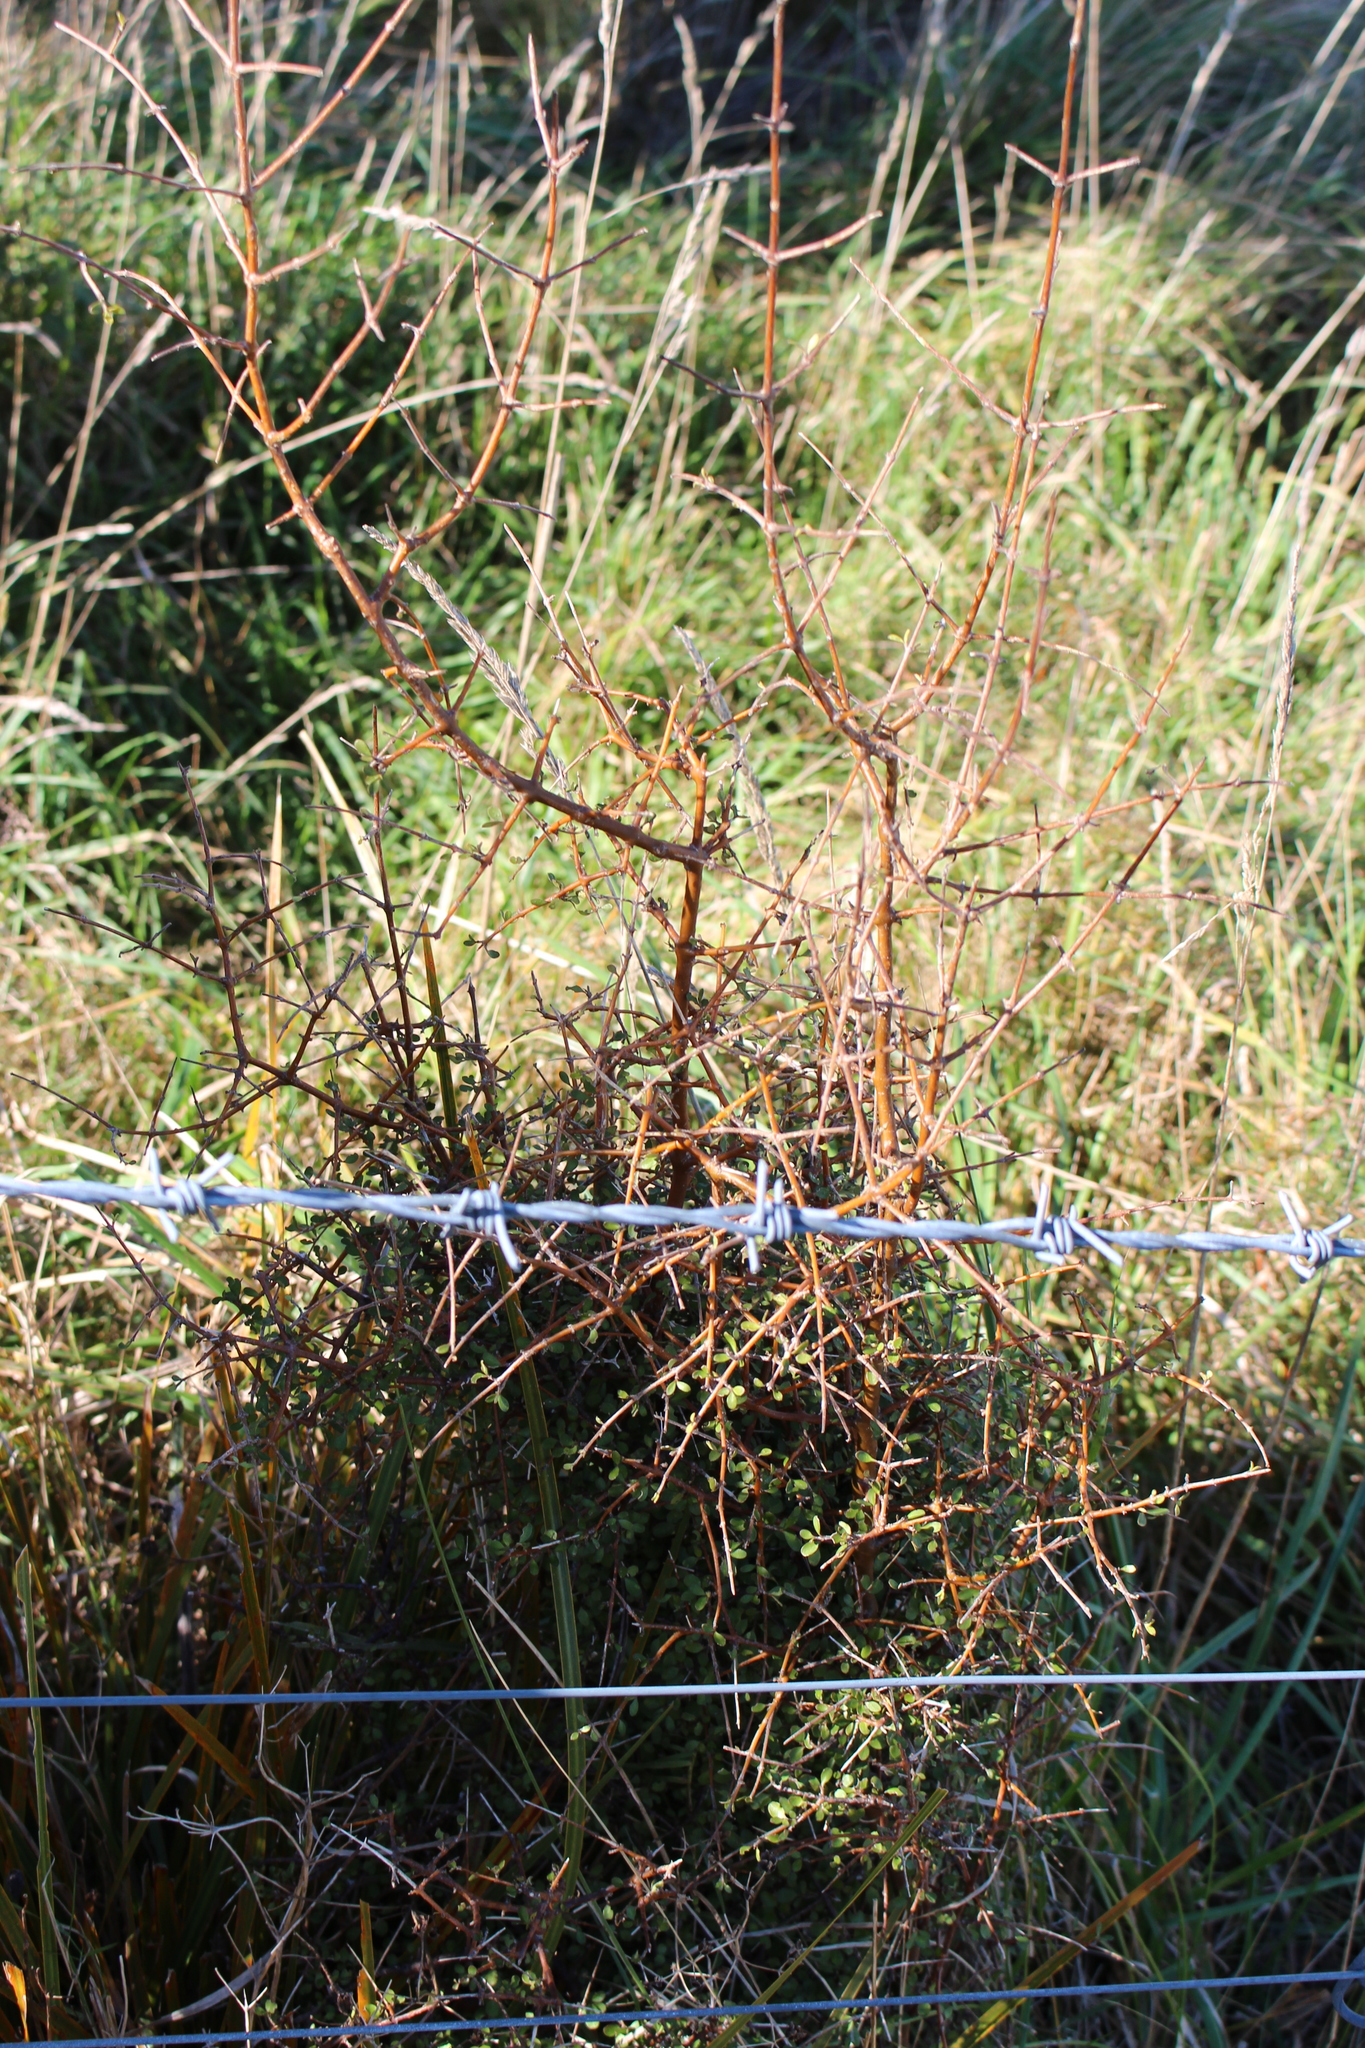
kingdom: Plantae
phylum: Tracheophyta
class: Magnoliopsida
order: Gentianales
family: Rubiaceae
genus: Coprosma
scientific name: Coprosma rigida
